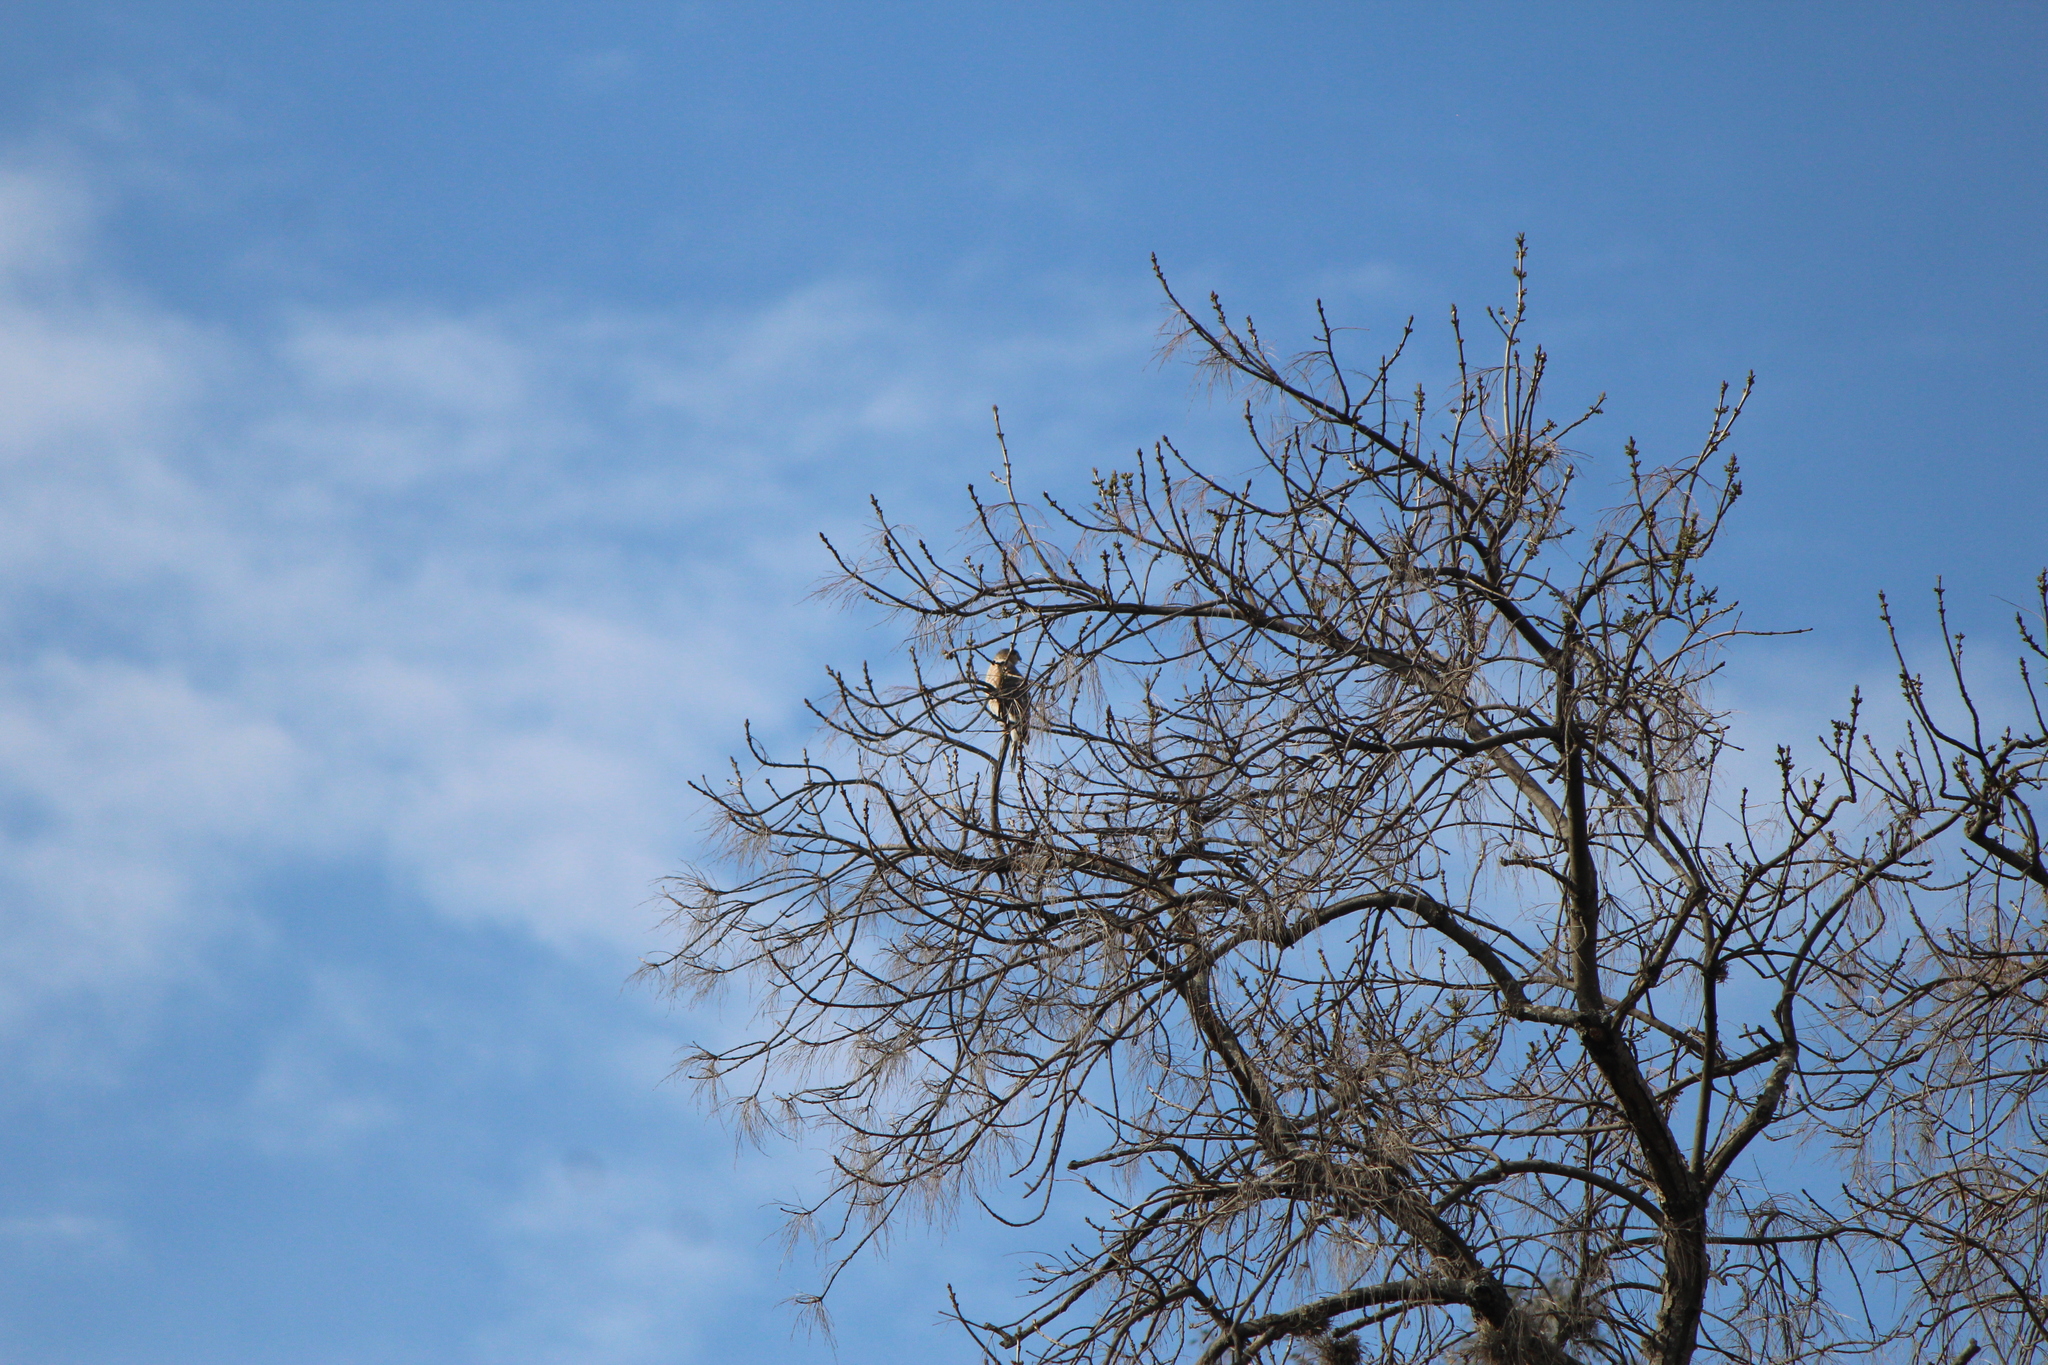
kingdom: Animalia
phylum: Chordata
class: Aves
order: Accipitriformes
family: Accipitridae
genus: Accipiter
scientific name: Accipiter cooperii
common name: Cooper's hawk
